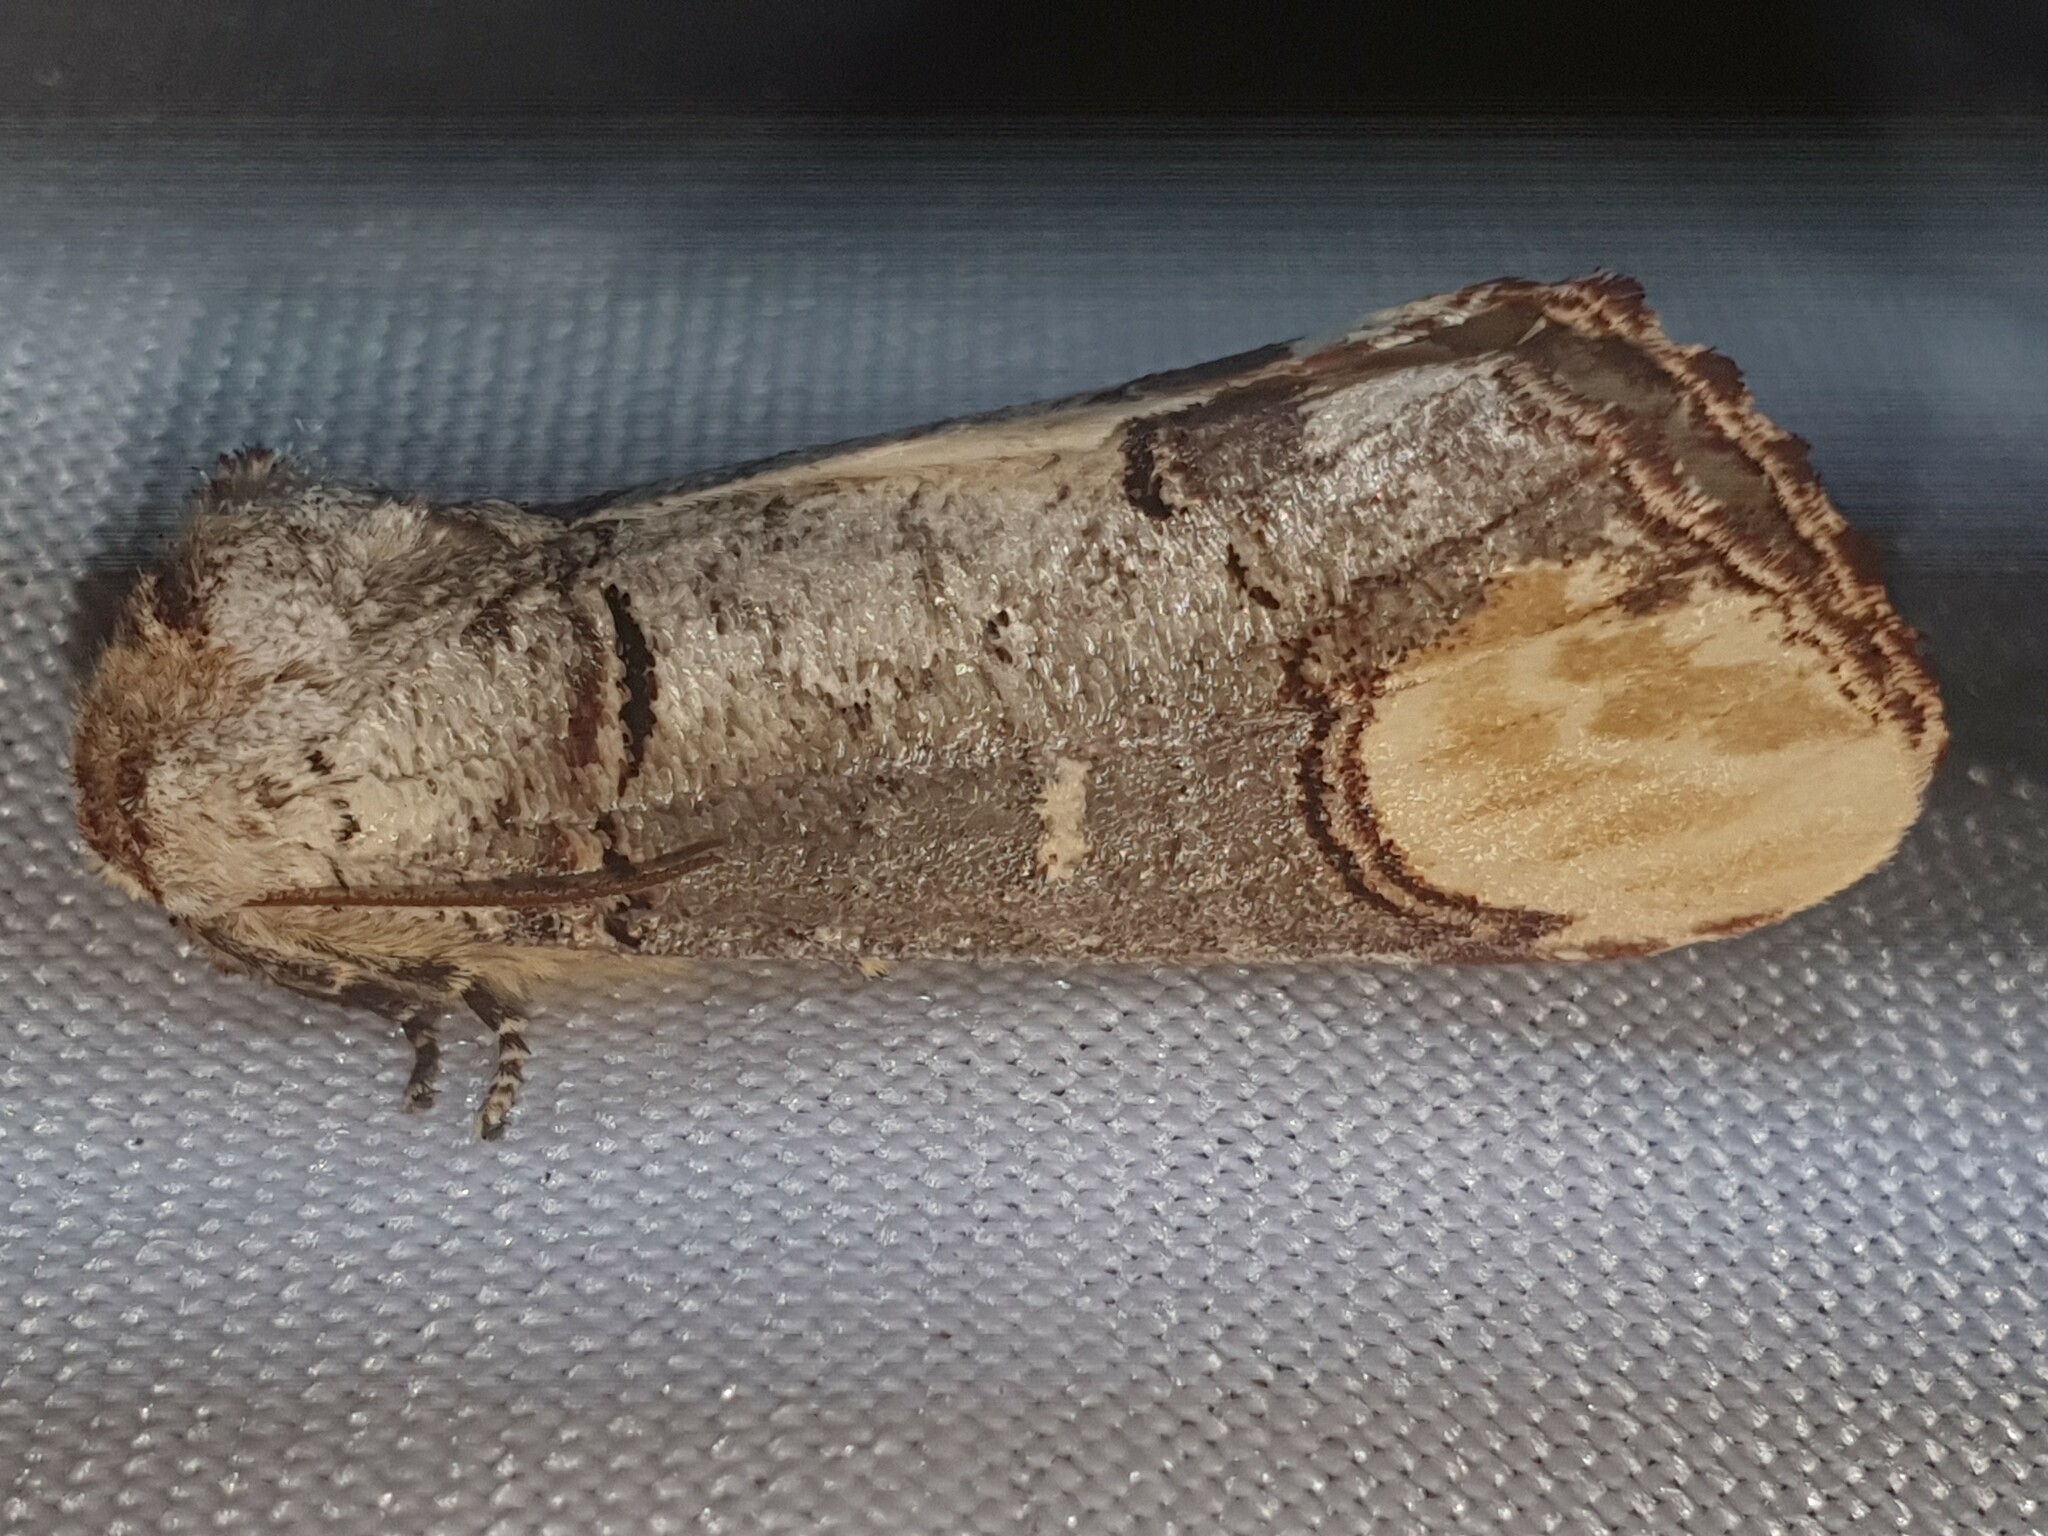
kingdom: Animalia
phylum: Arthropoda
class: Insecta
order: Lepidoptera
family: Notodontidae
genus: Phalera
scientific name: Phalera bucephala
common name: Buff-tip
